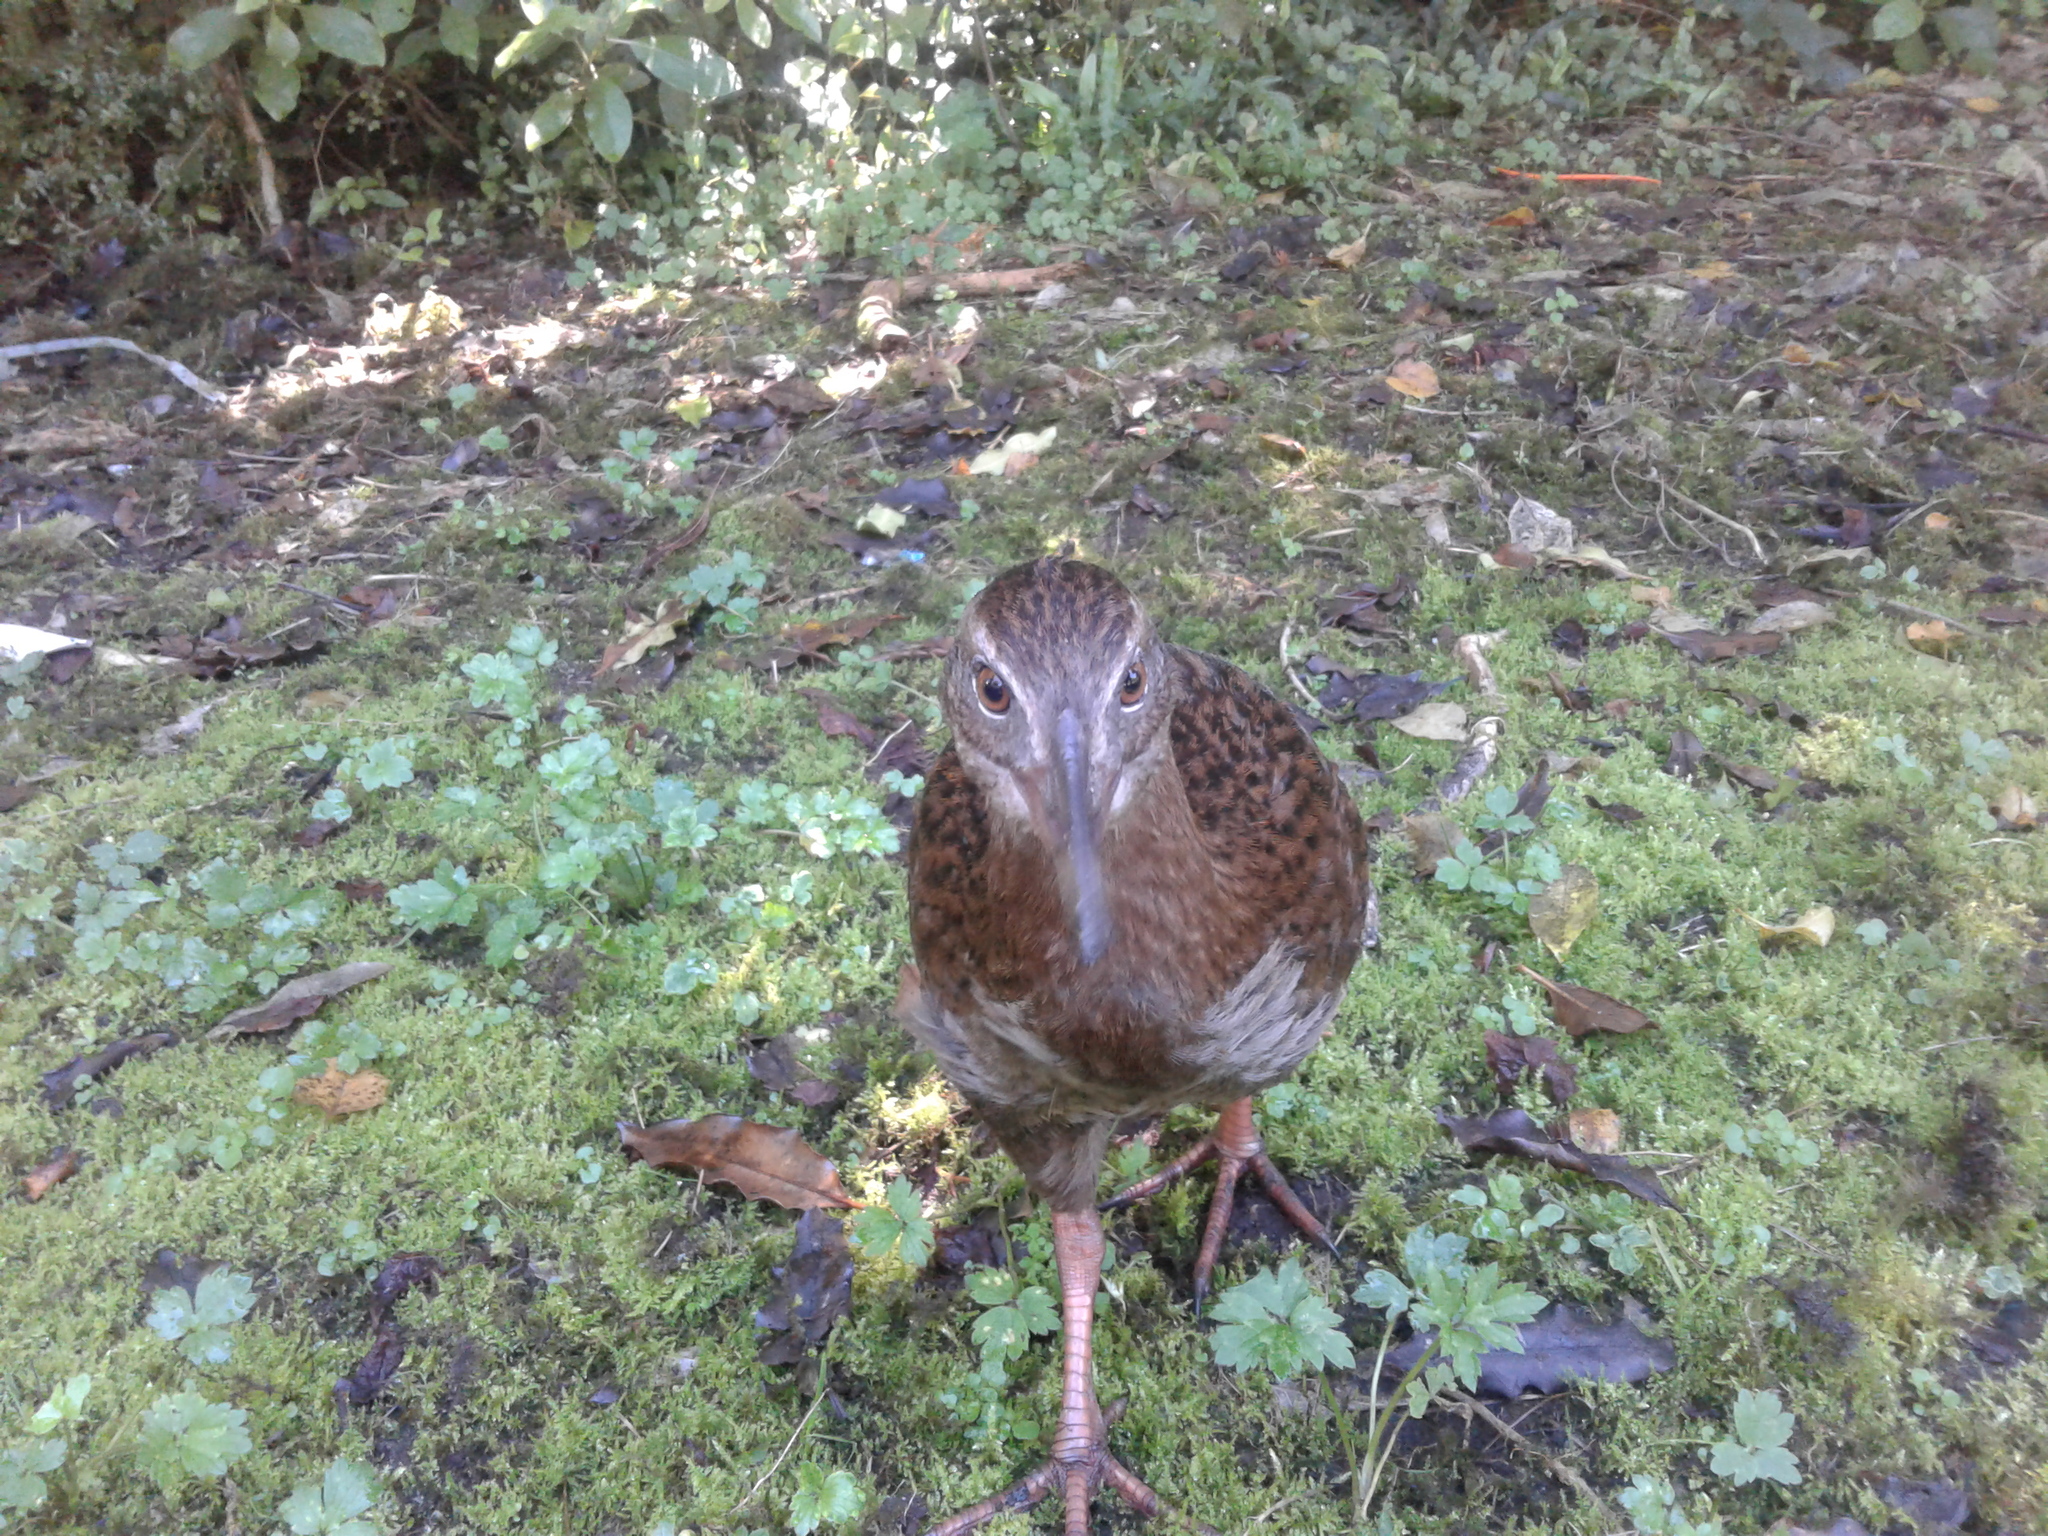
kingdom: Animalia
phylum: Chordata
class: Aves
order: Gruiformes
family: Rallidae
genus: Gallirallus
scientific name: Gallirallus australis
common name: Weka
